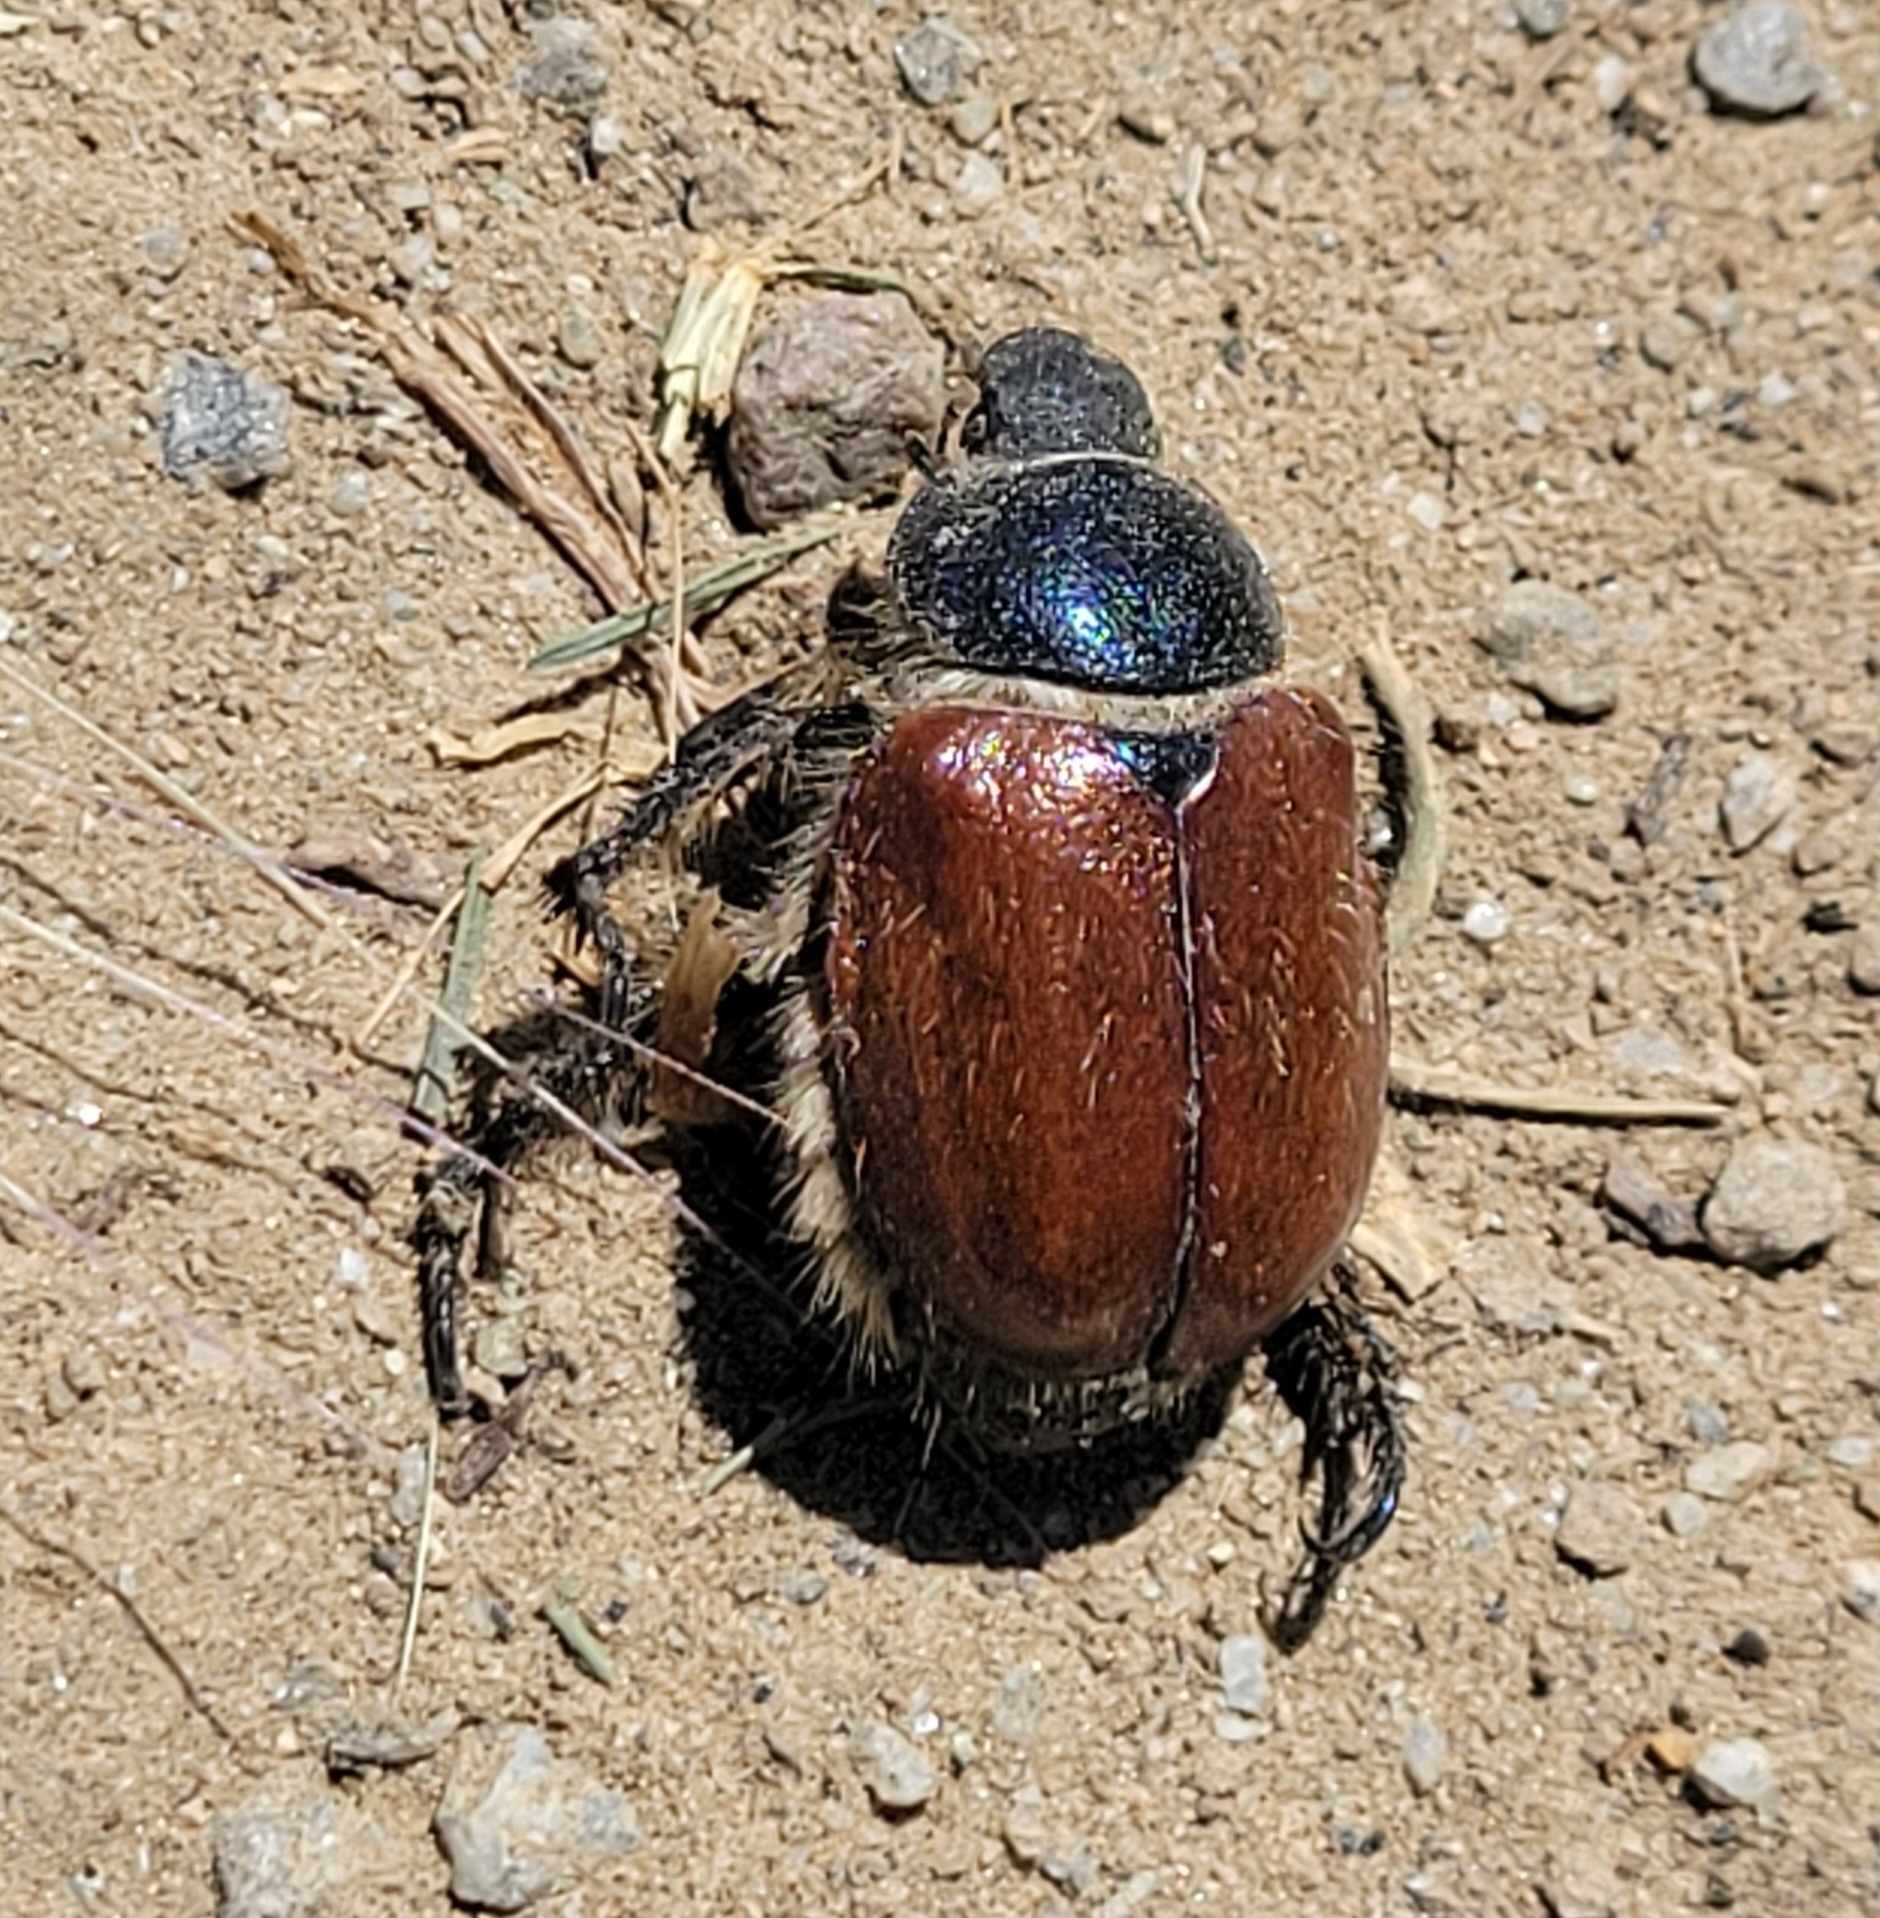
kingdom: Animalia
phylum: Arthropoda
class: Insecta
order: Coleoptera
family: Scarabaeidae
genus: Paracotalpa
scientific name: Paracotalpa ursina
